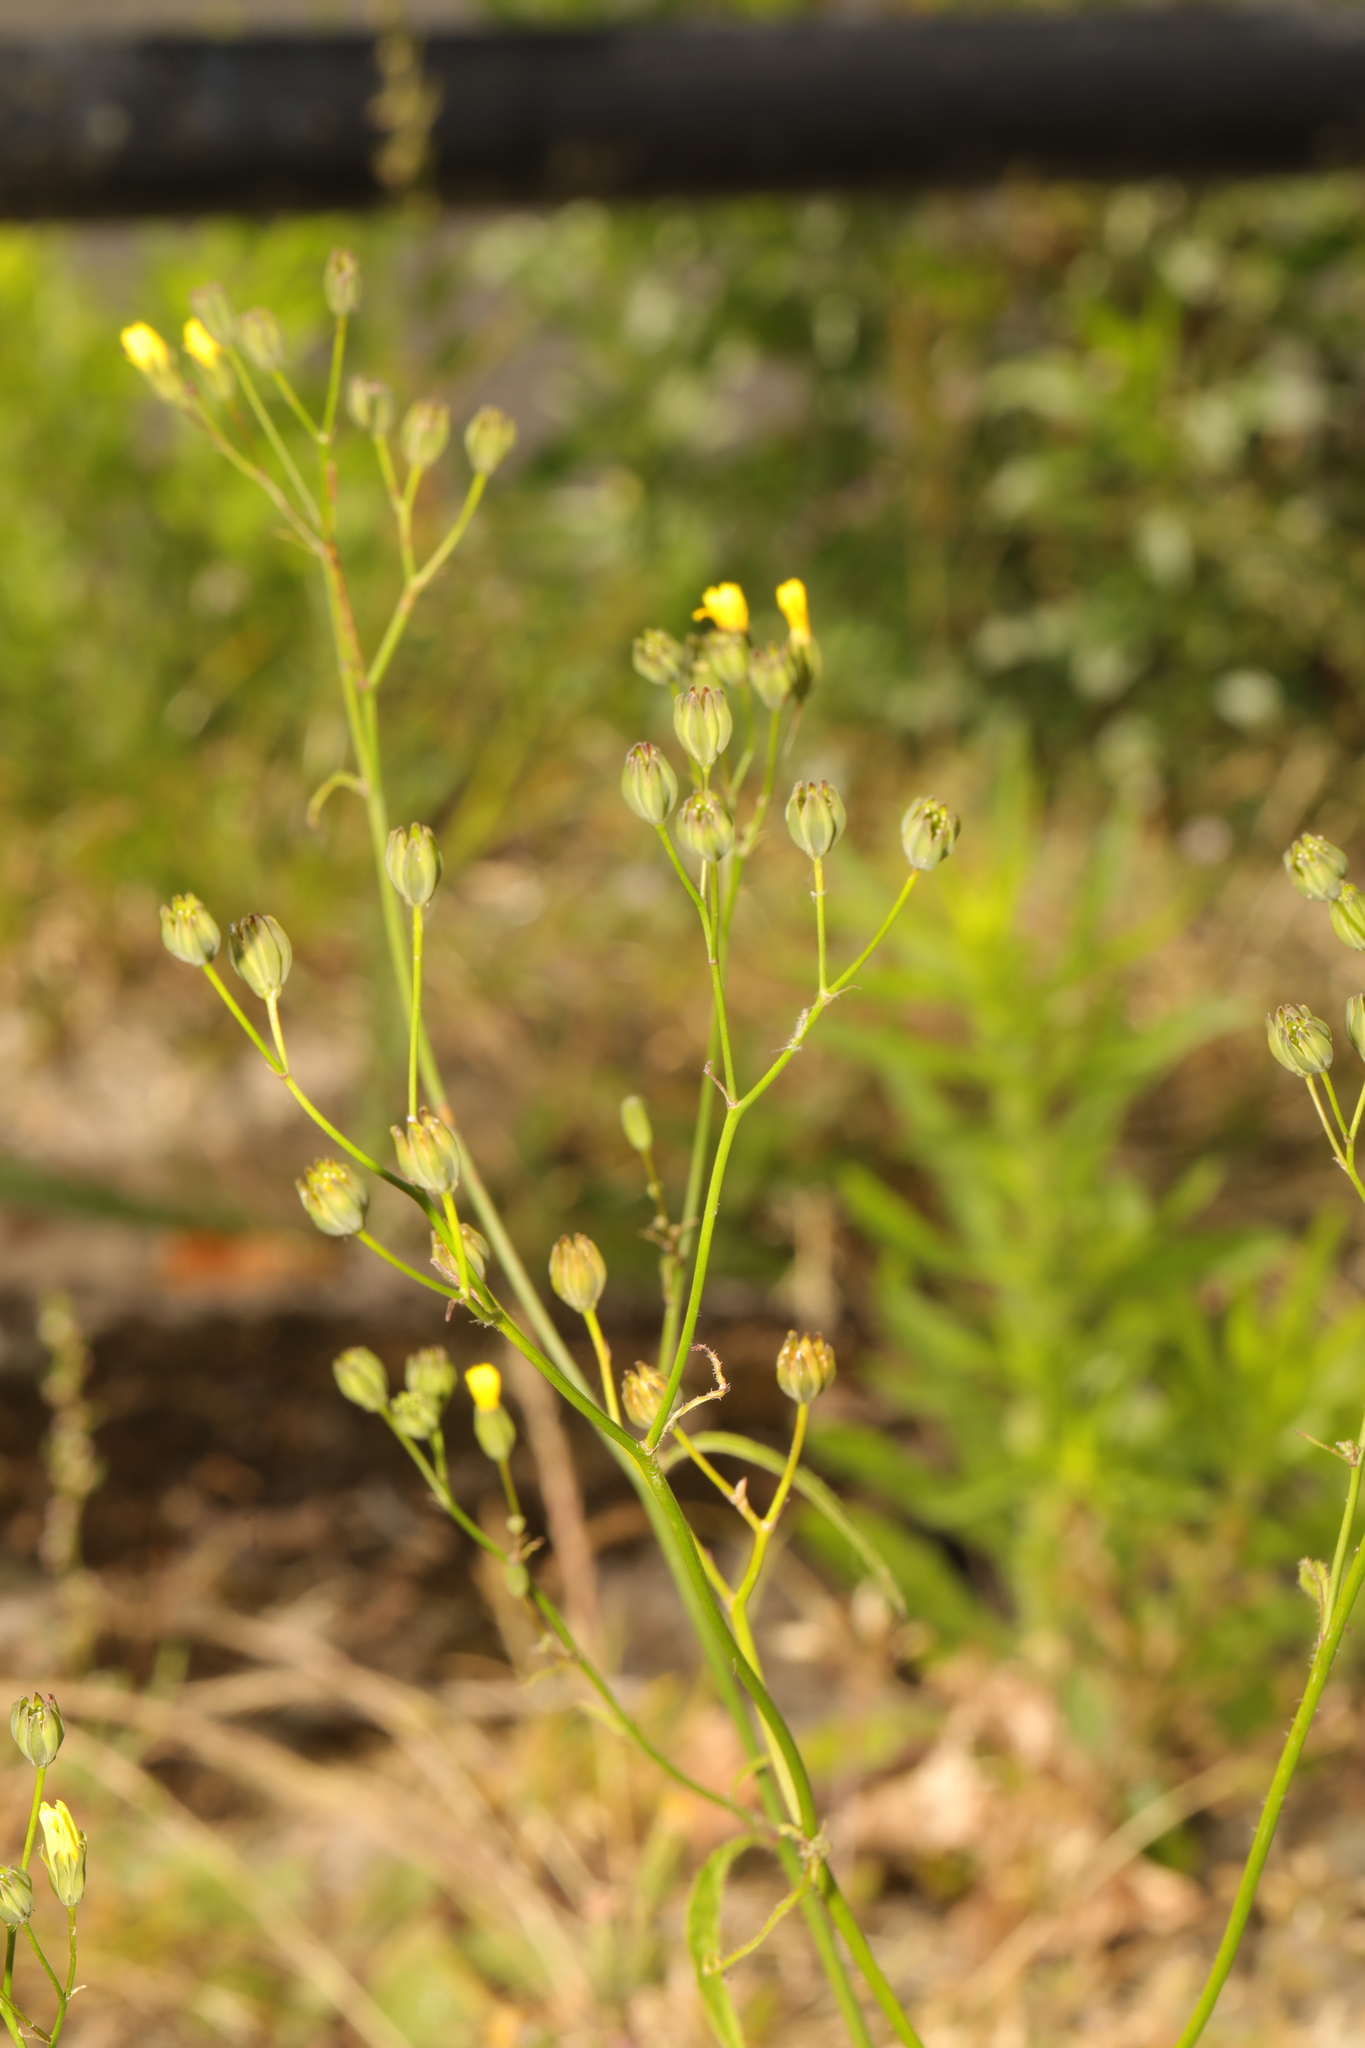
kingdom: Plantae
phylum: Tracheophyta
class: Magnoliopsida
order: Asterales
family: Asteraceae
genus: Lapsana
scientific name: Lapsana communis
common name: Nipplewort
